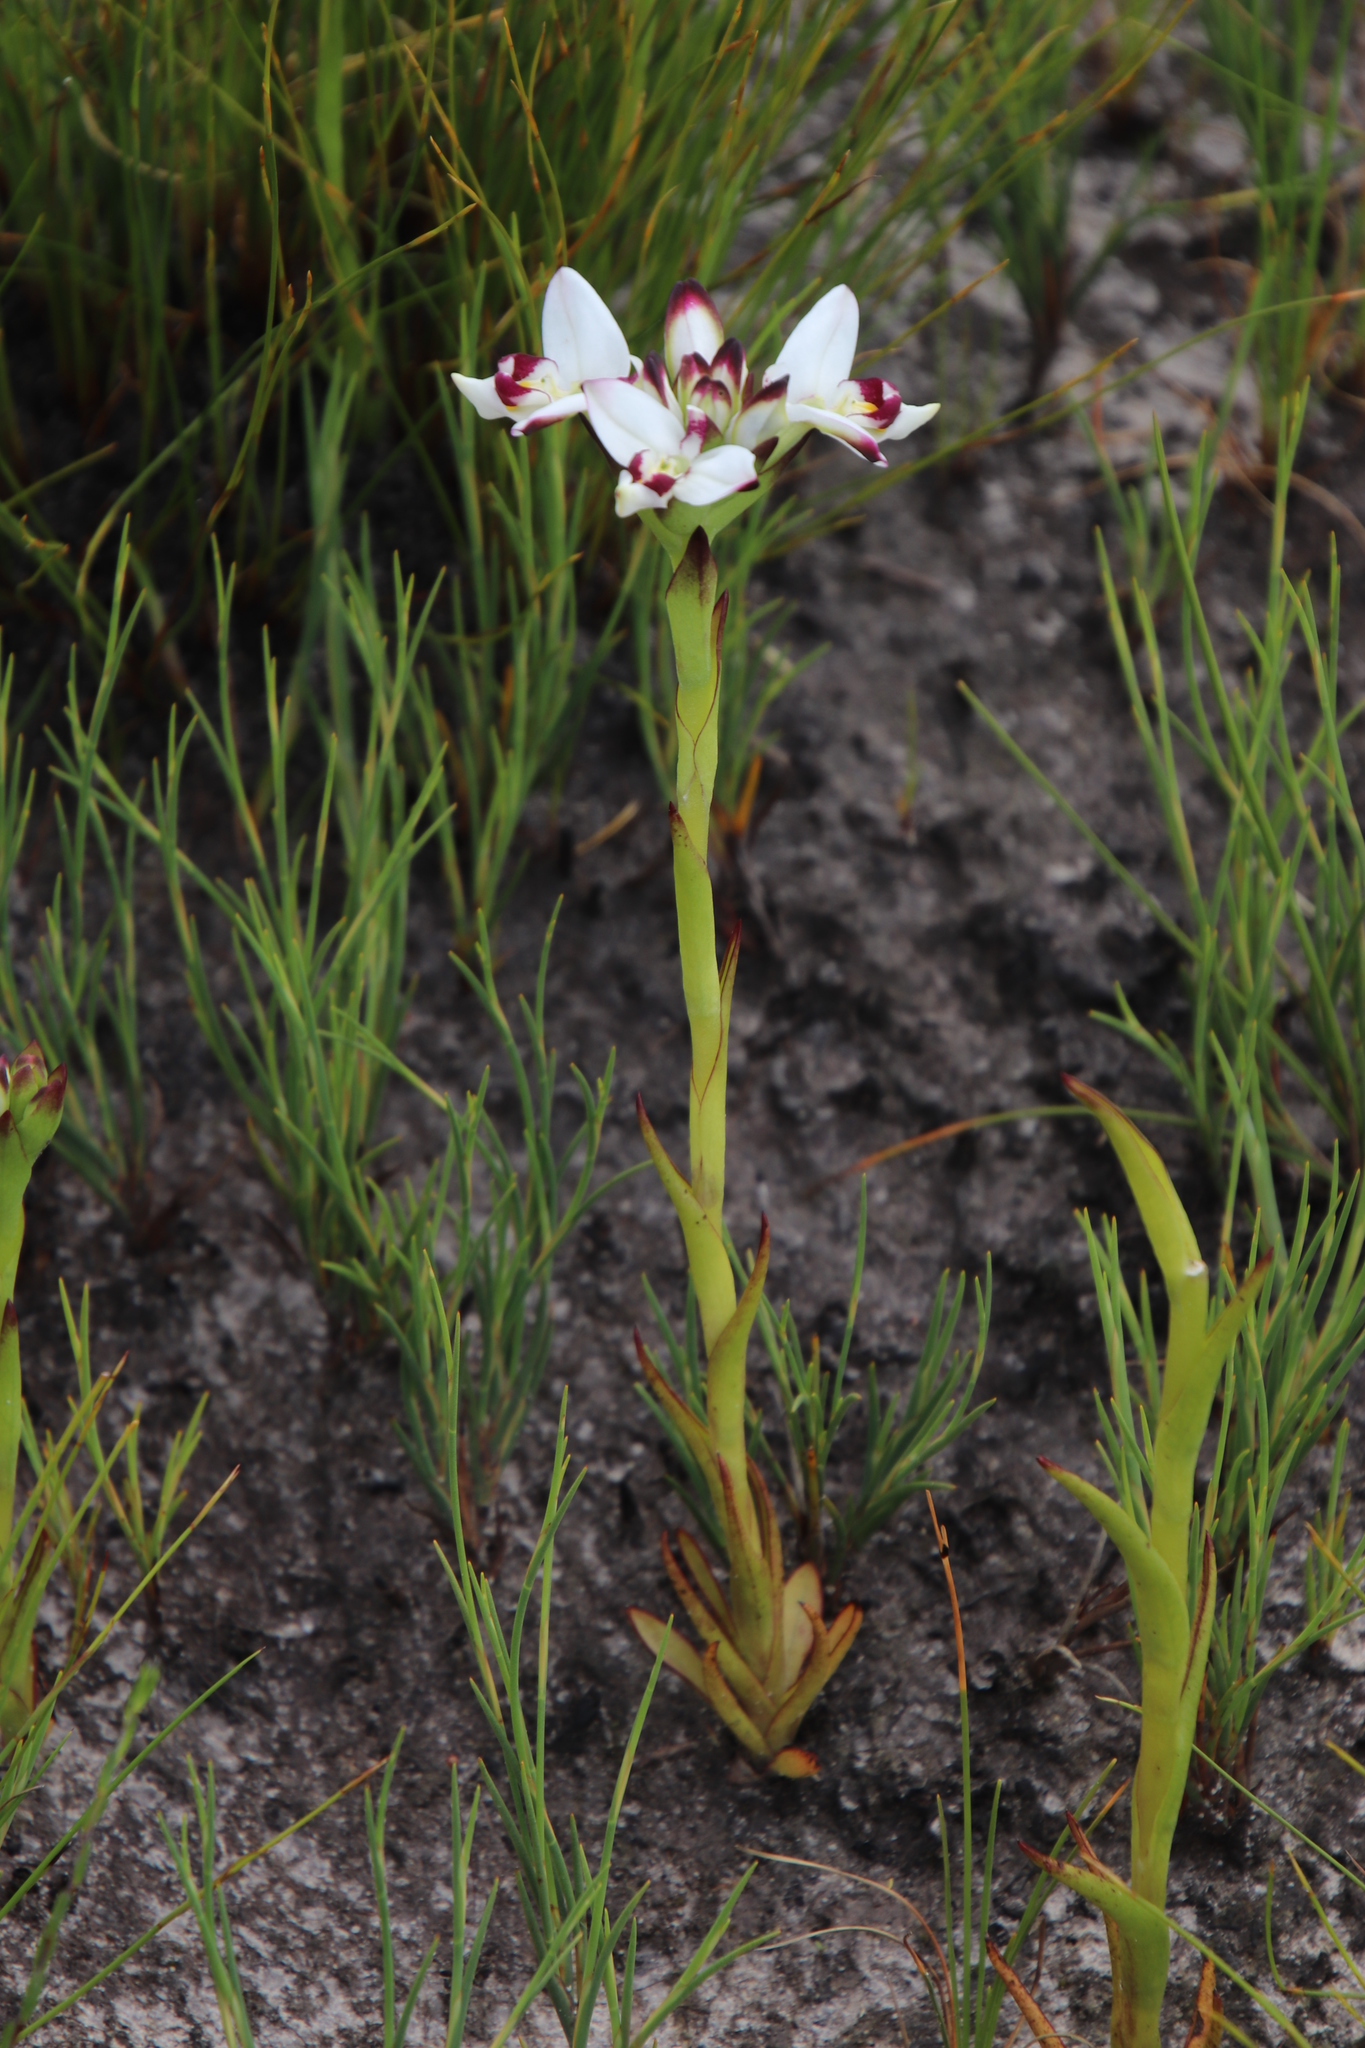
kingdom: Plantae
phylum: Tracheophyta
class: Liliopsida
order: Asparagales
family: Orchidaceae
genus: Disa
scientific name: Disa bivalvata
